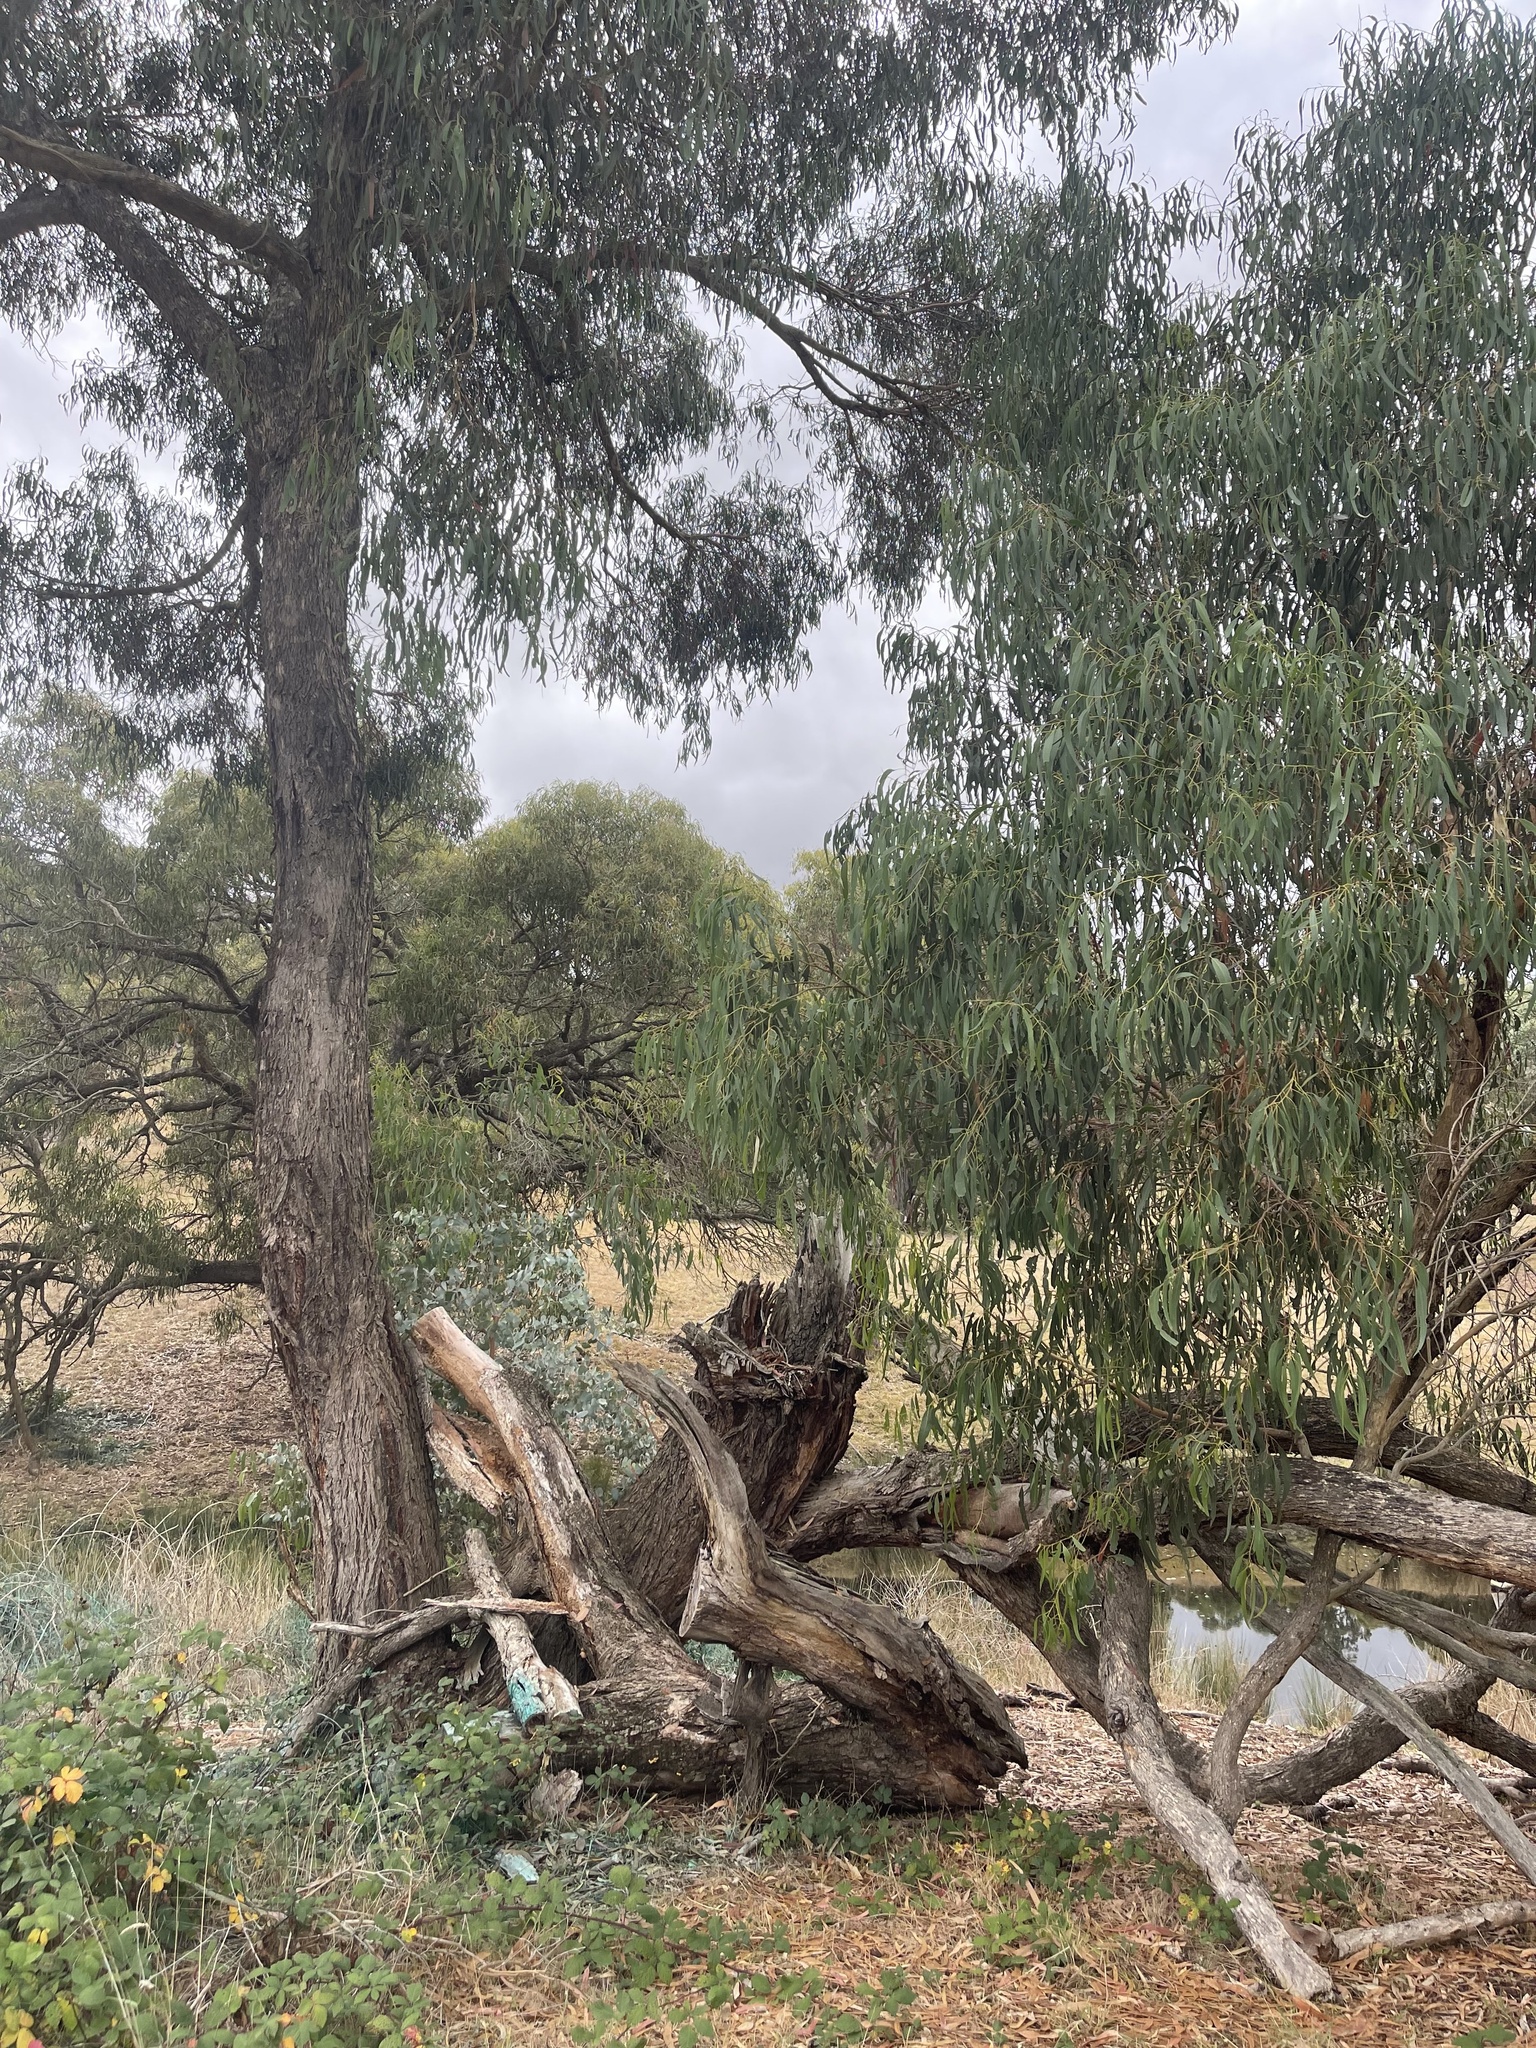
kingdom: Plantae
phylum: Tracheophyta
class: Magnoliopsida
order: Myrtales
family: Myrtaceae
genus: Eucalyptus
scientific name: Eucalyptus goniocalyx
